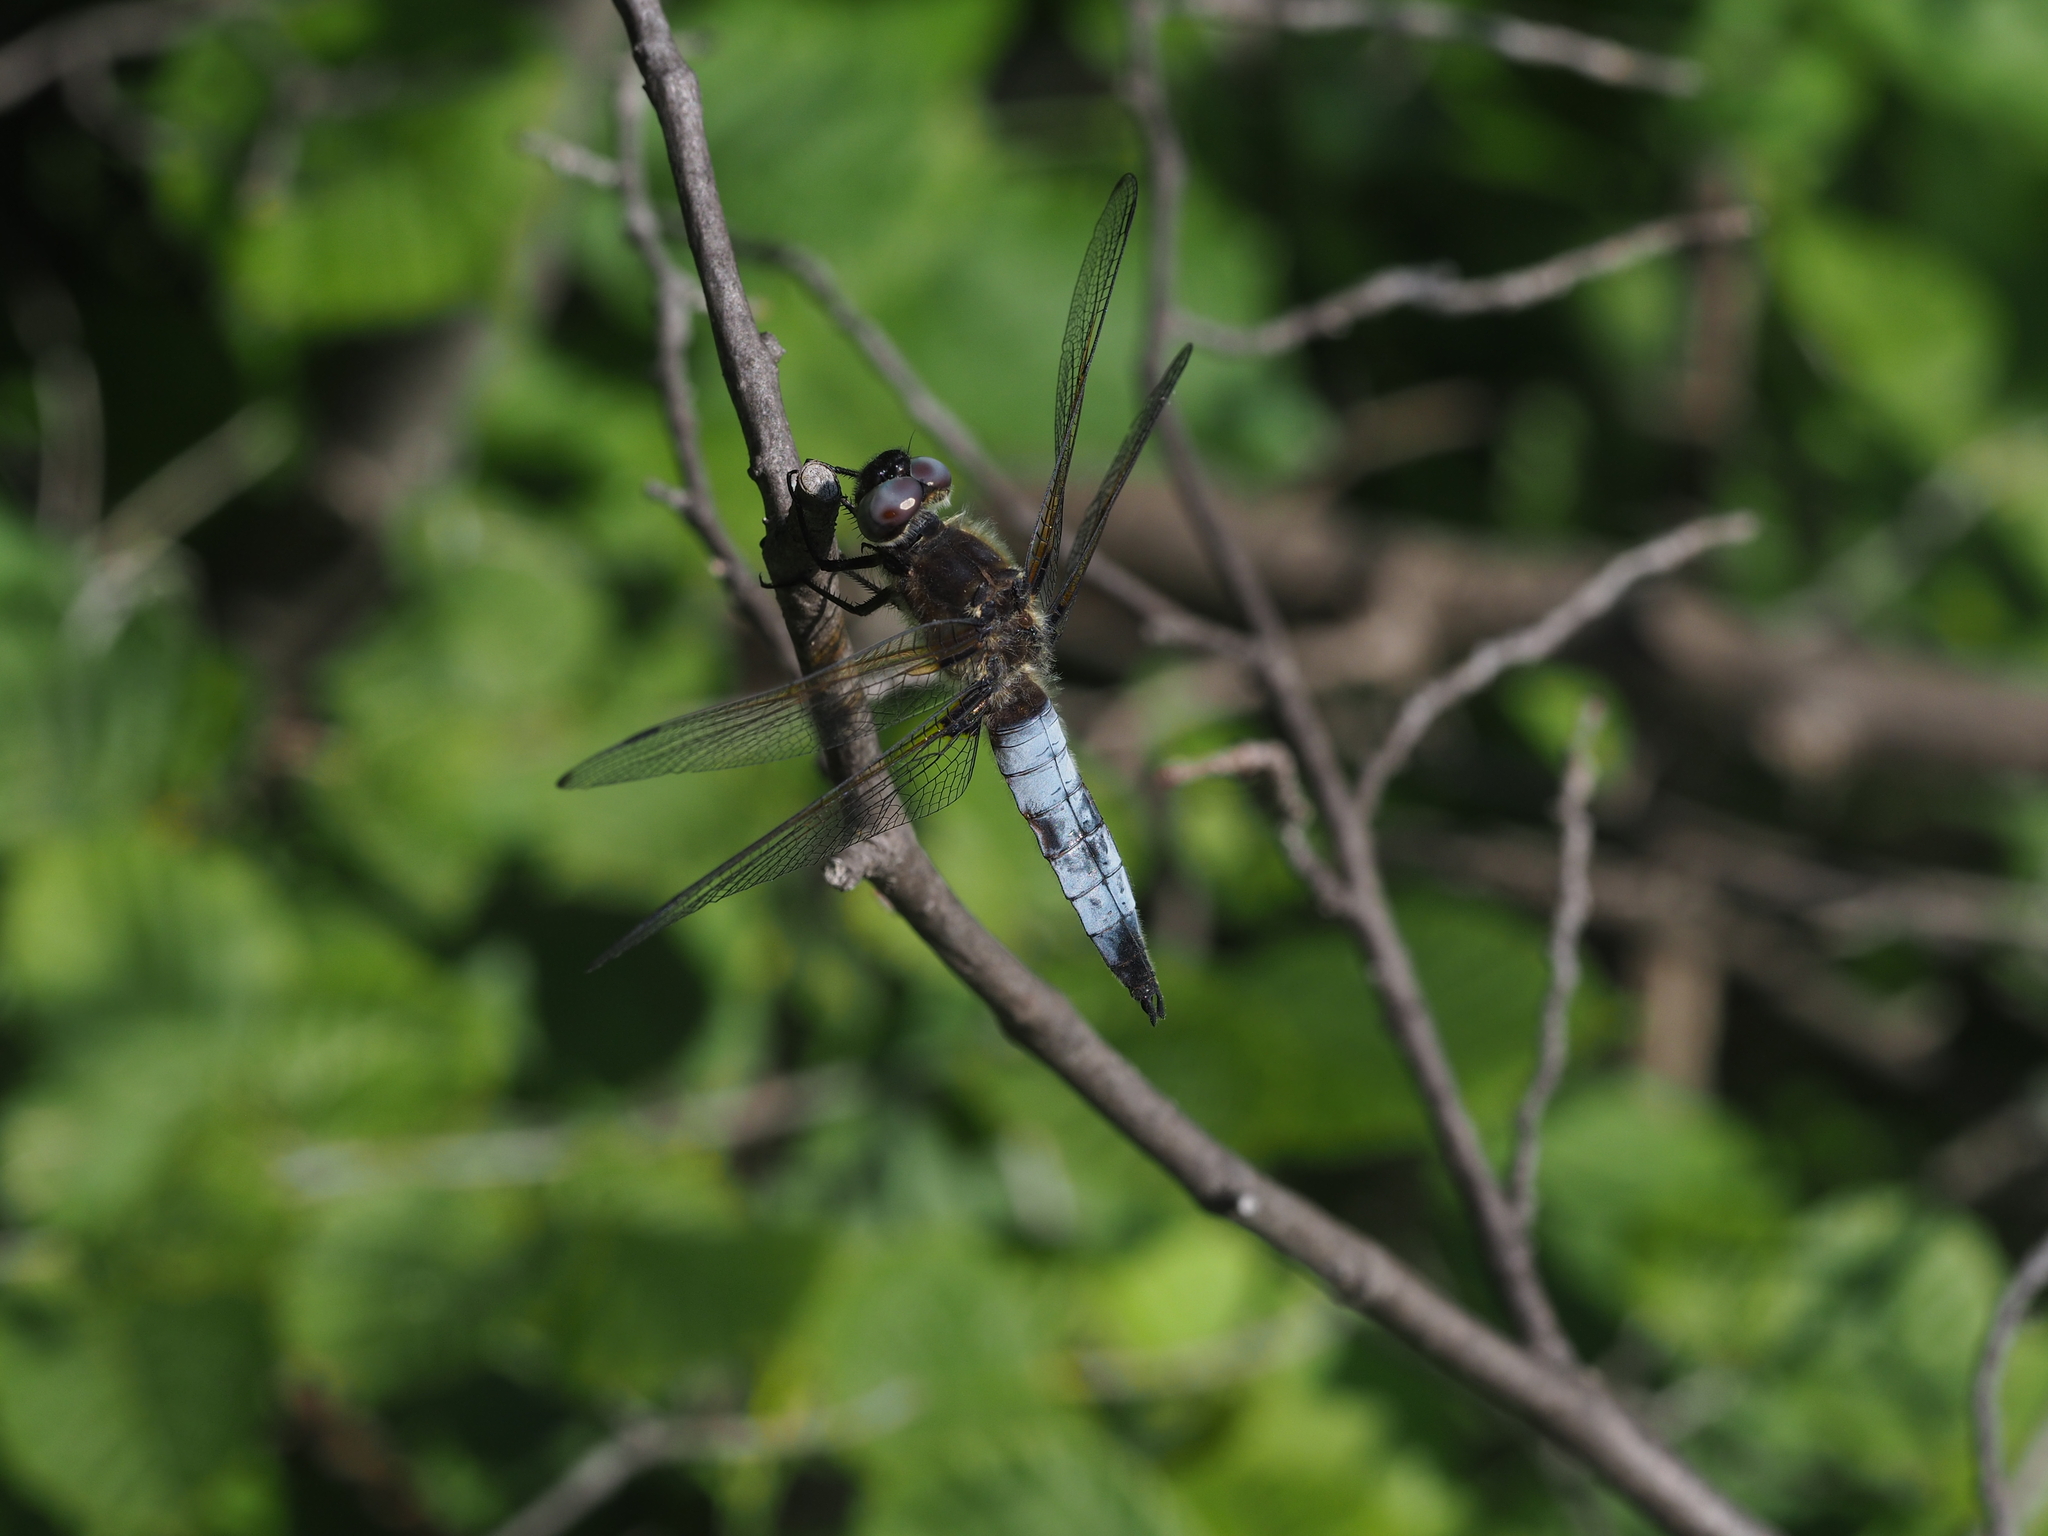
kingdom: Animalia
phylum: Arthropoda
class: Insecta
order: Odonata
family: Libellulidae
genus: Libellula
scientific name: Libellula fulva
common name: Blue chaser
